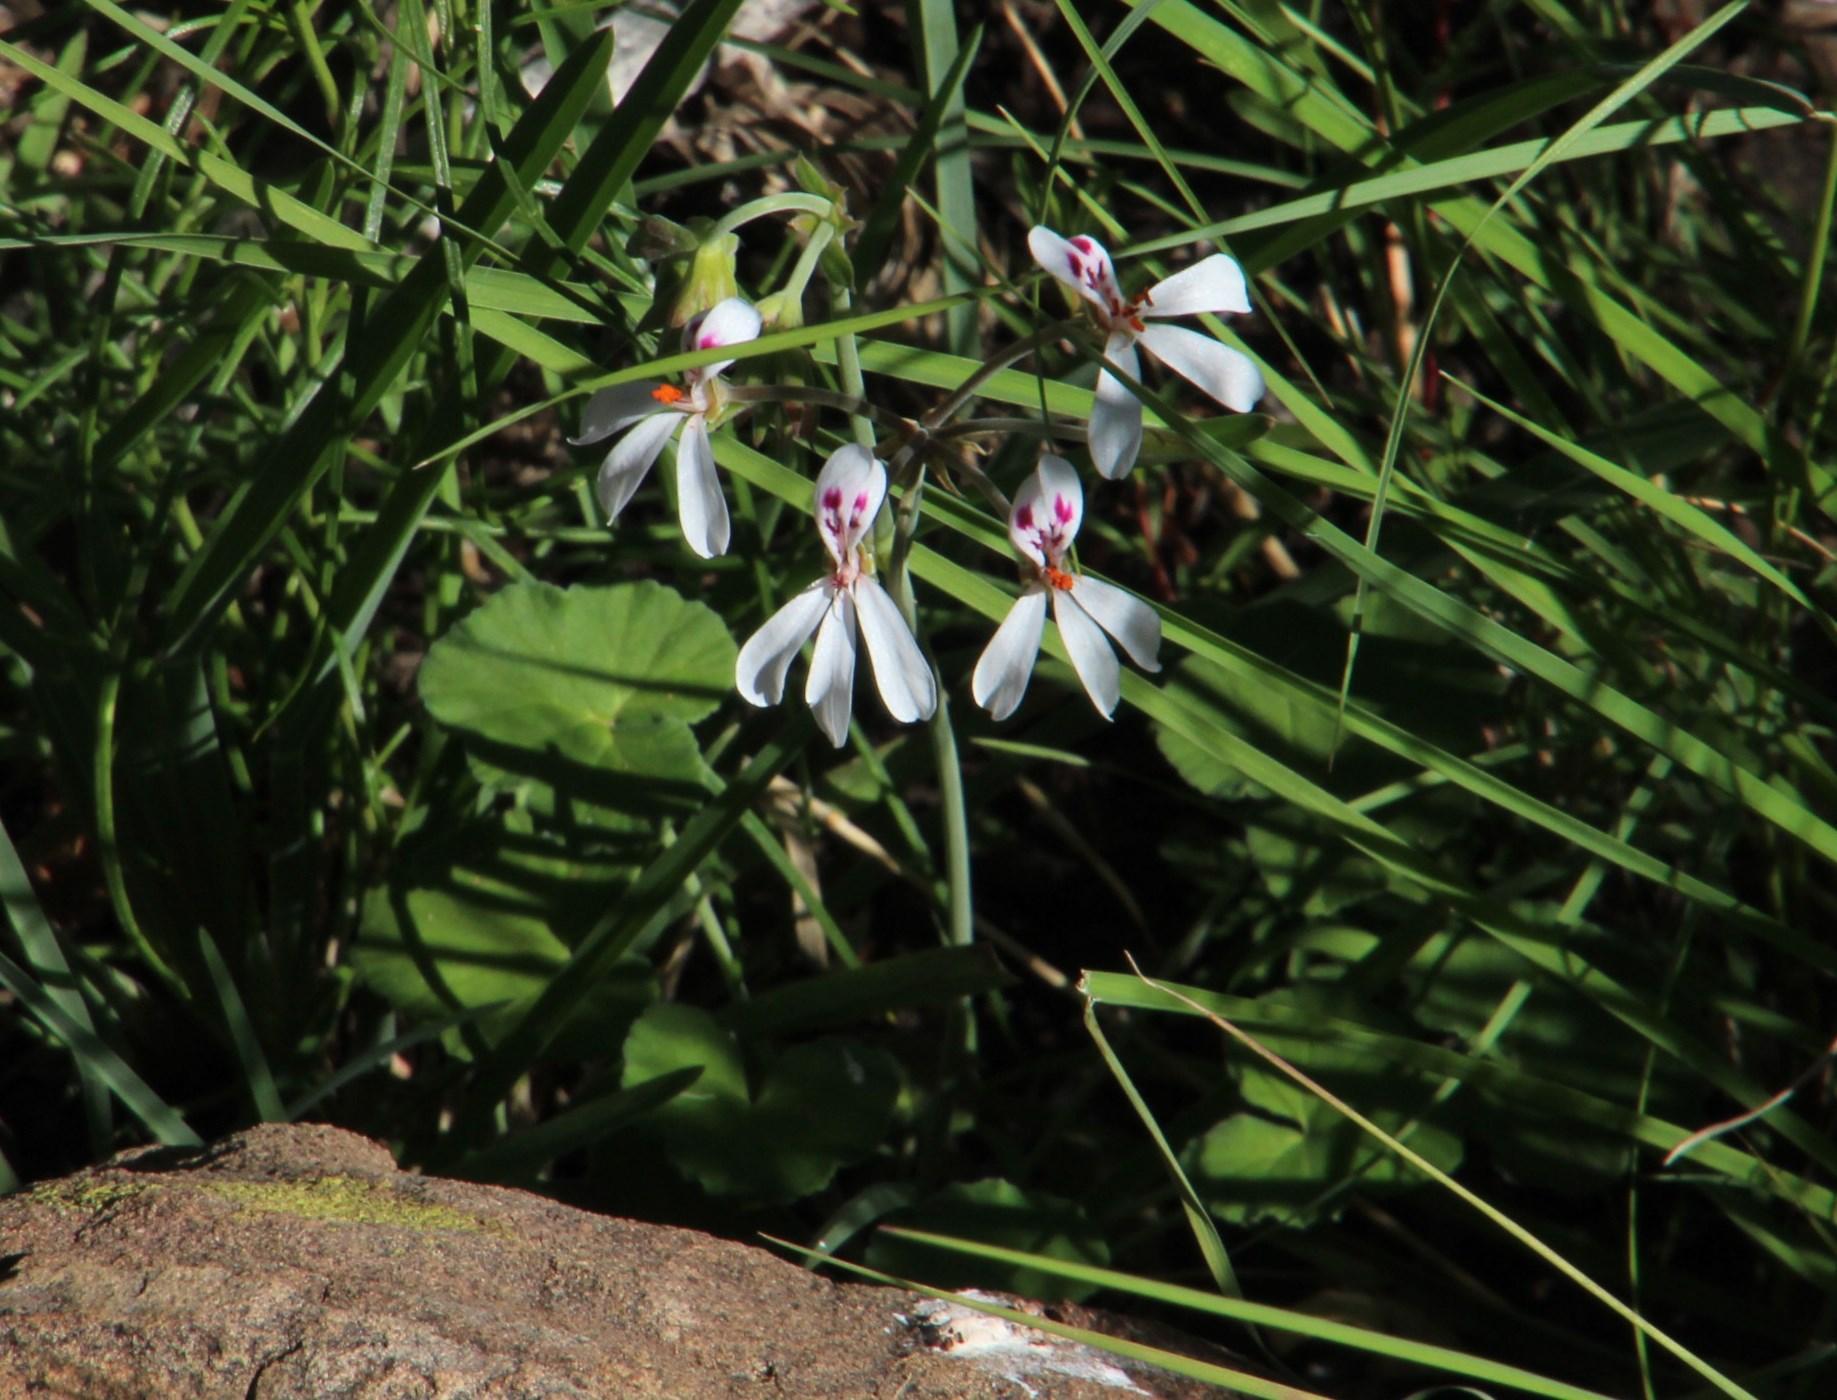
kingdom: Plantae
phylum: Tracheophyta
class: Magnoliopsida
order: Geraniales
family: Geraniaceae
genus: Pelargonium
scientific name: Pelargonium dichondrifolium
